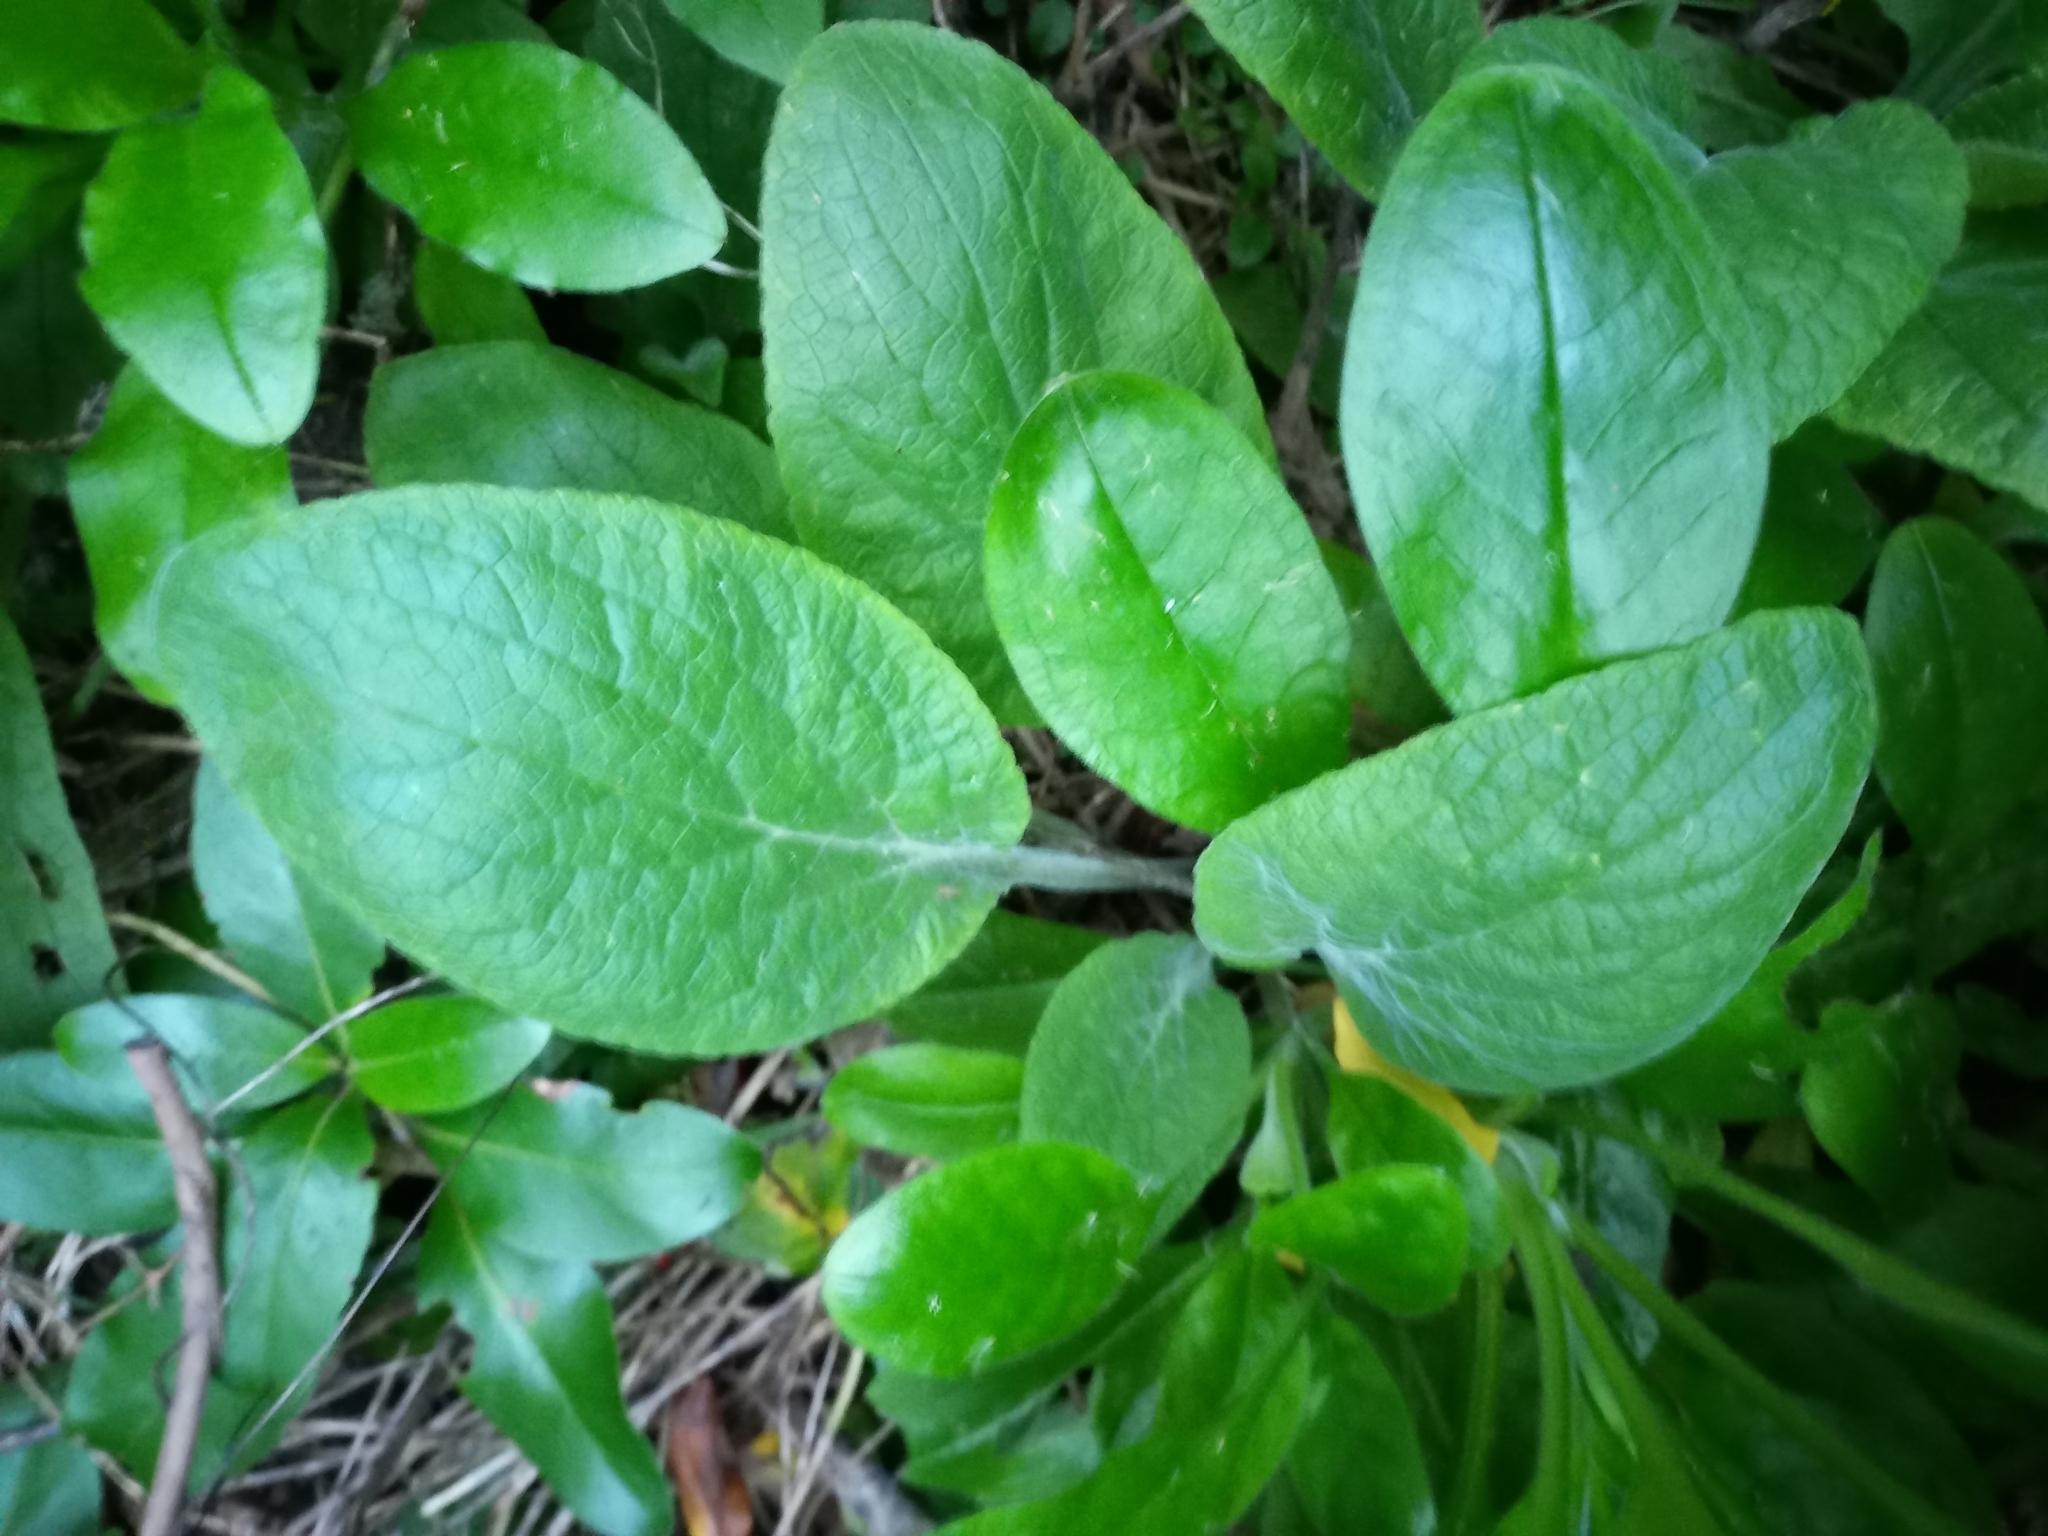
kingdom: Plantae
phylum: Tracheophyta
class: Magnoliopsida
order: Lamiales
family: Plantaginaceae
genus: Digitalis
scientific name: Digitalis purpurea
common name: Foxglove
